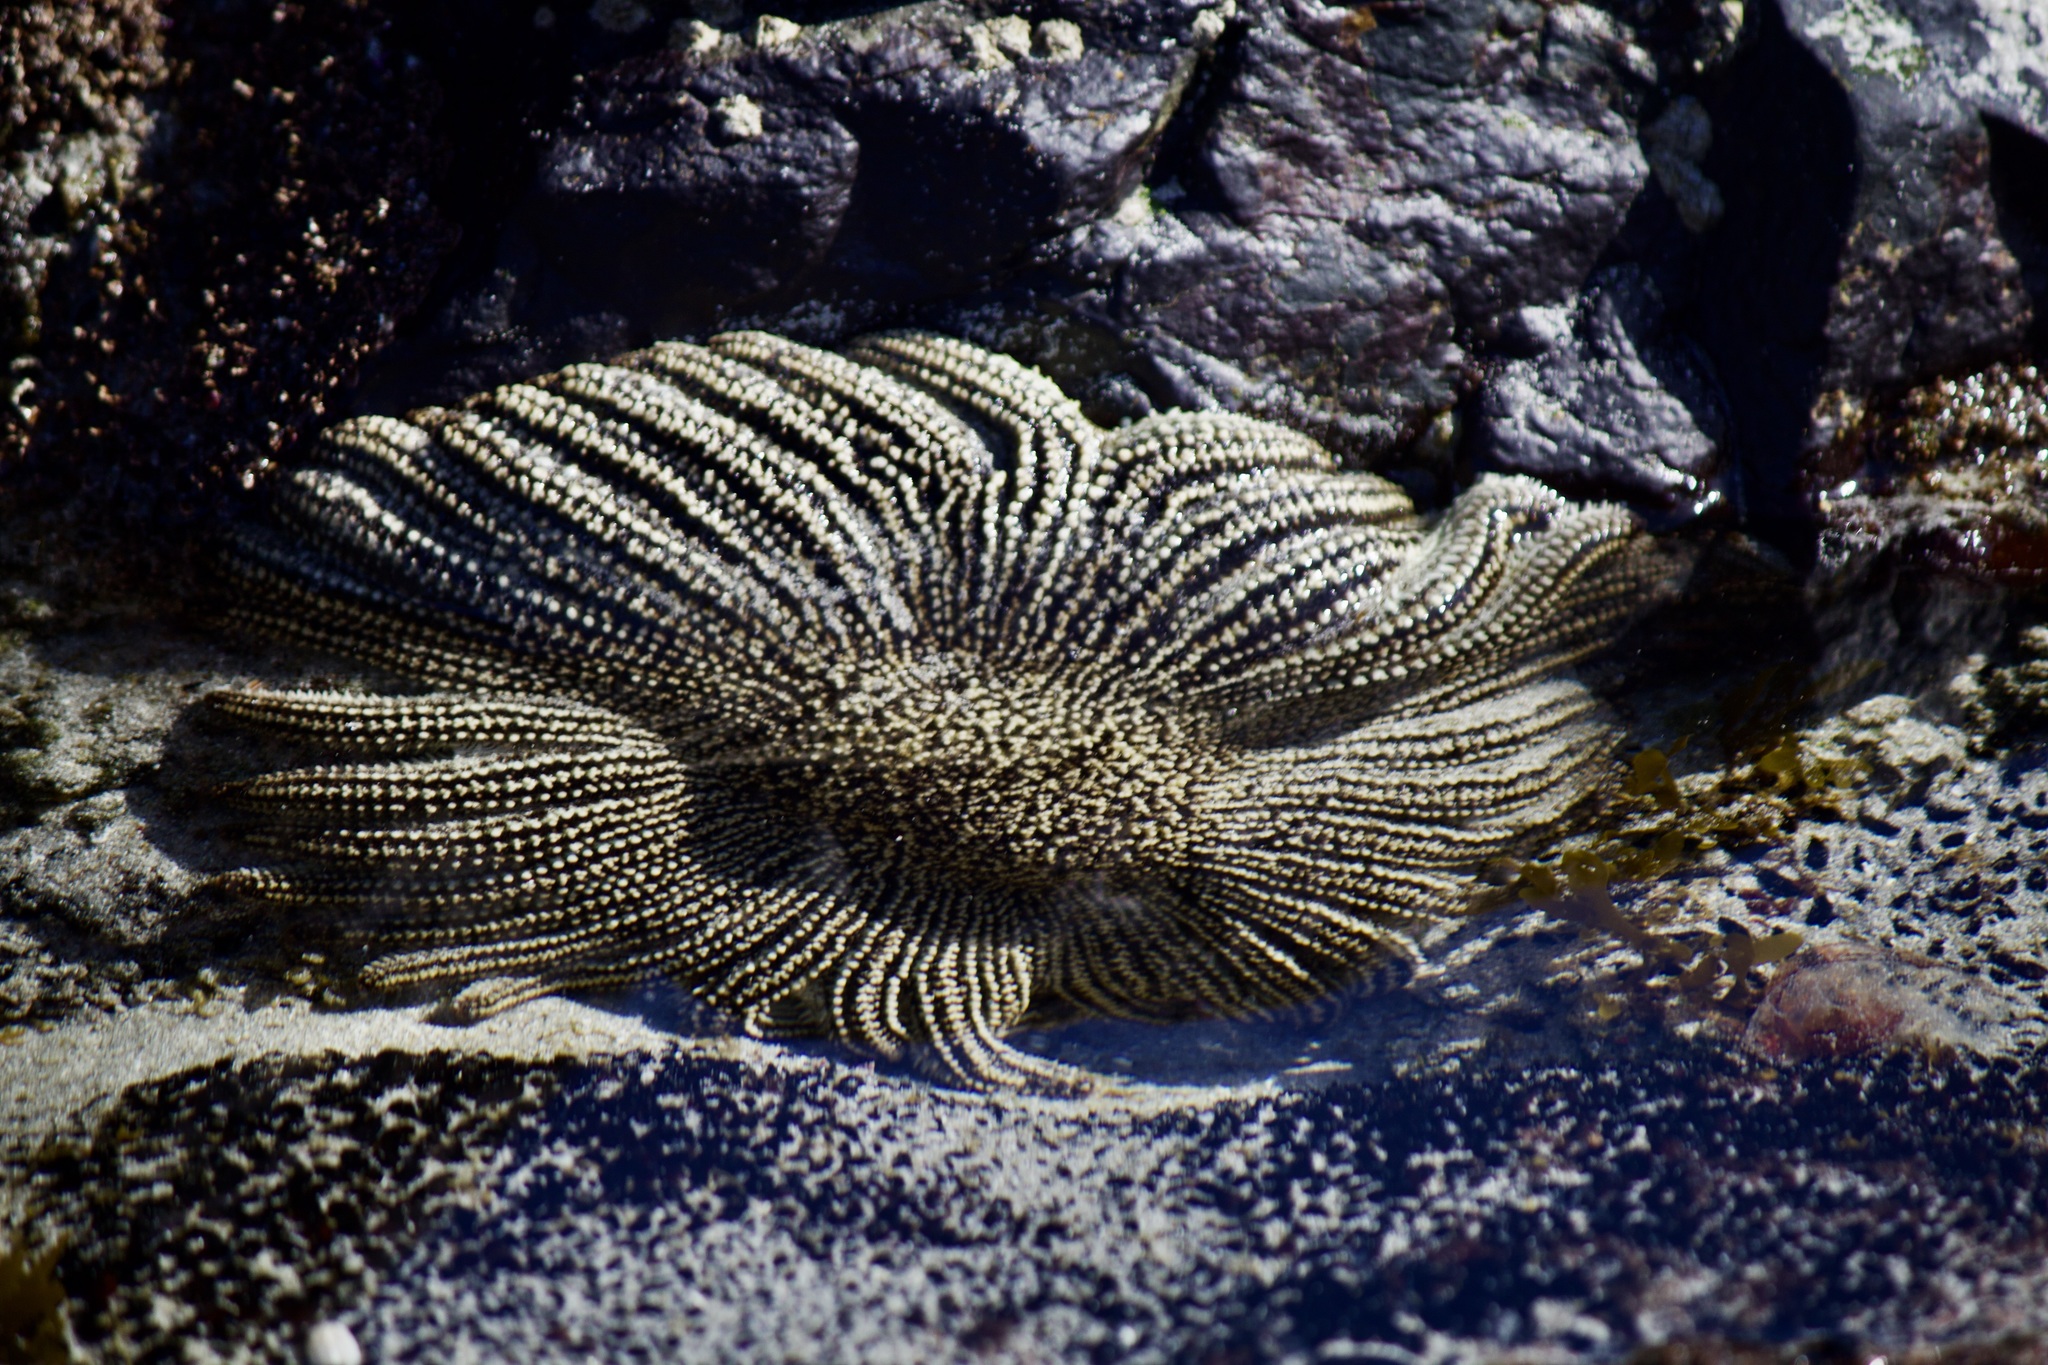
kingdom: Animalia
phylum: Echinodermata
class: Asteroidea
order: Forcipulatida
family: Heliasteridae
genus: Heliaster
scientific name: Heliaster helianthus
